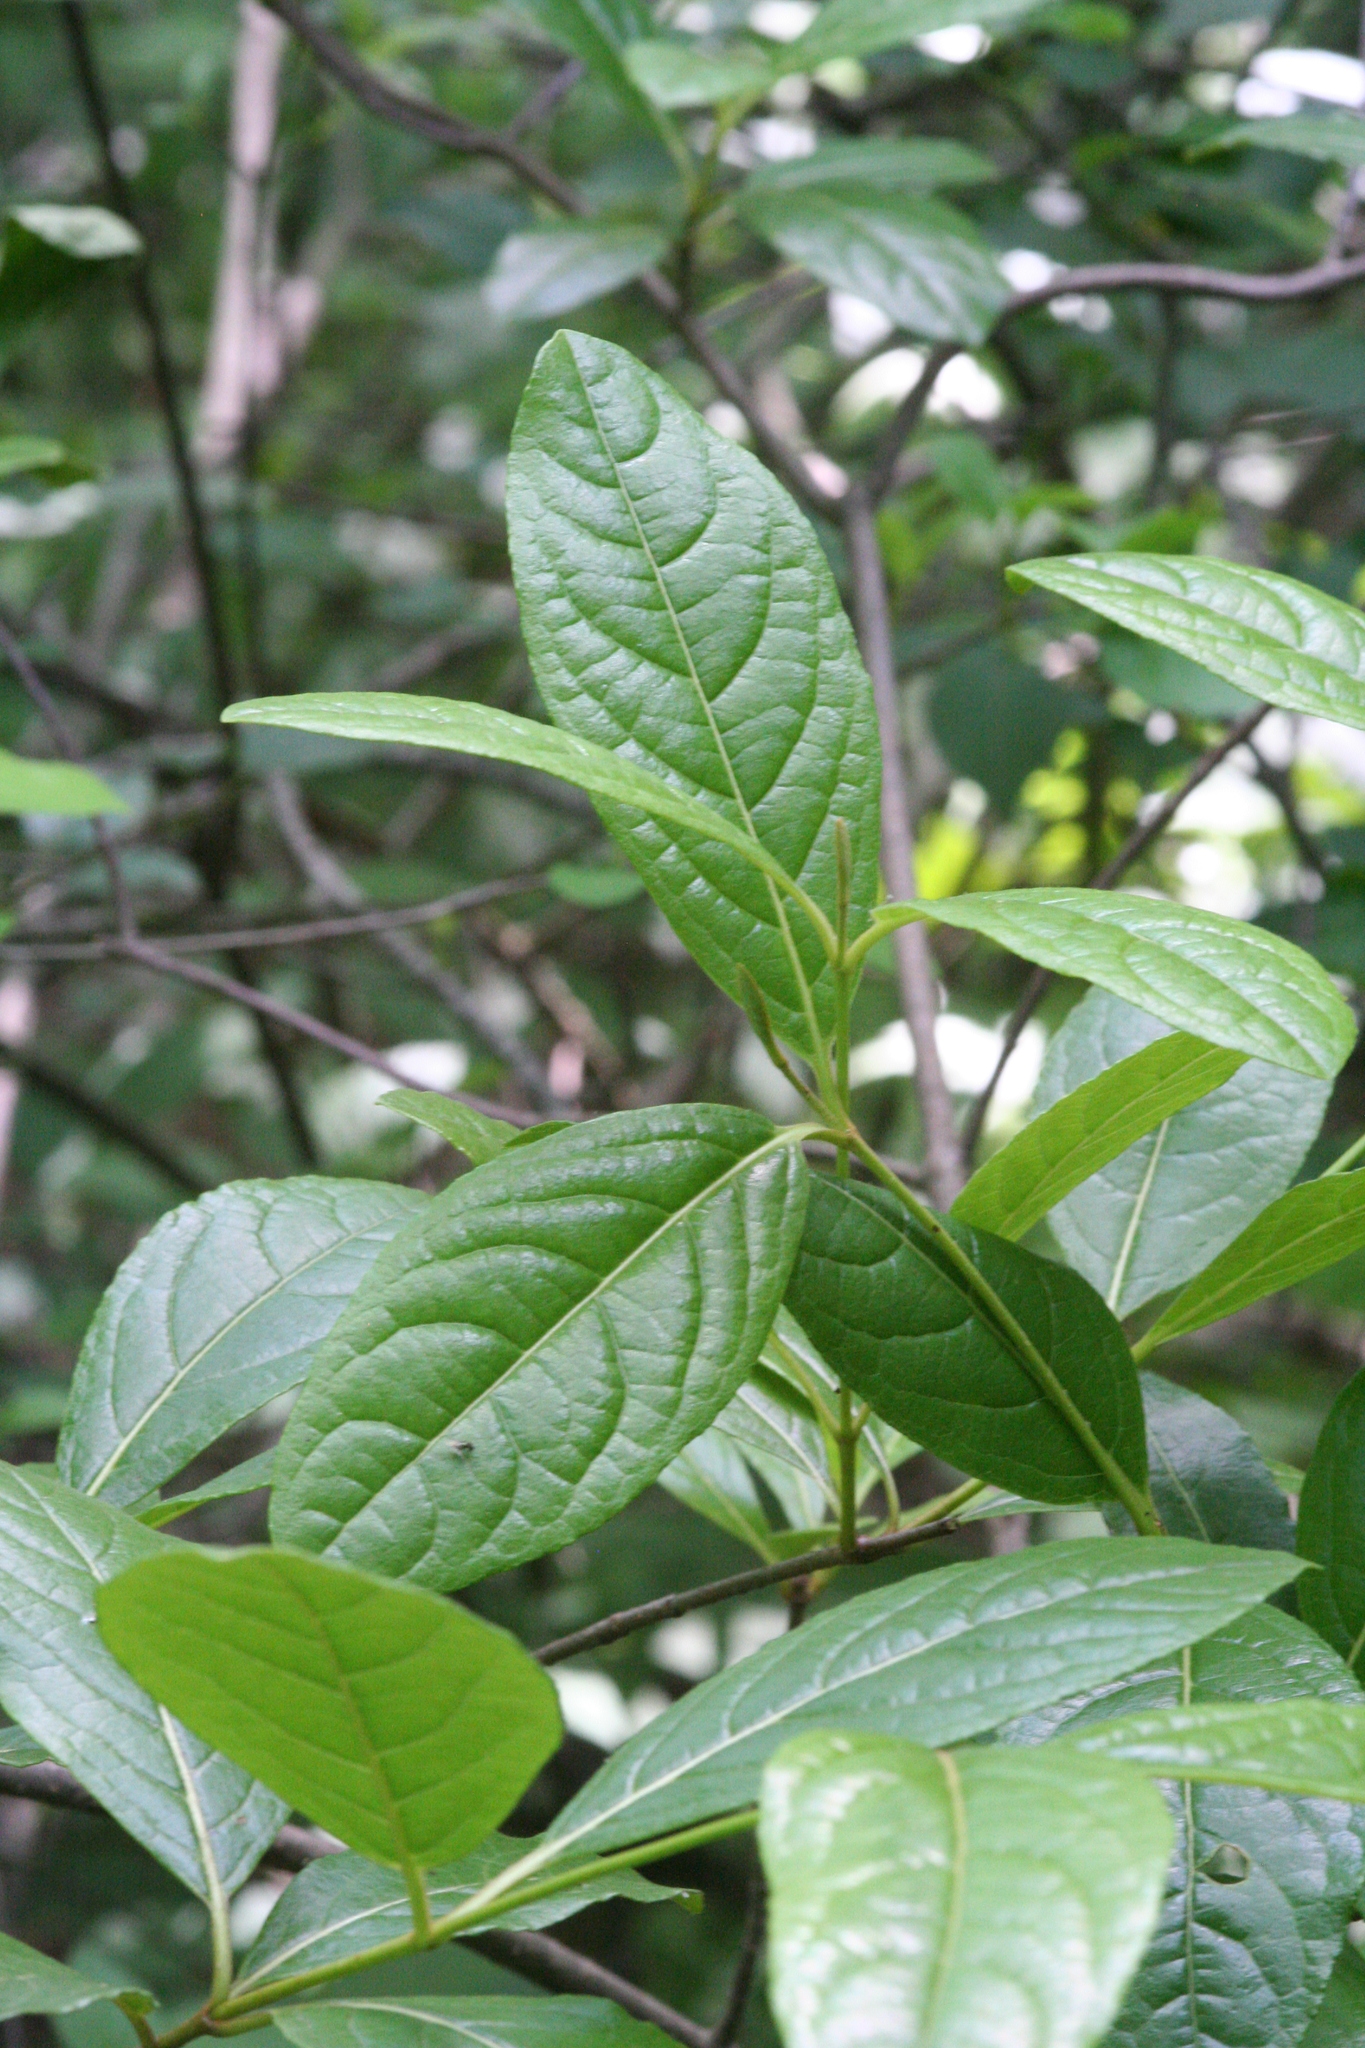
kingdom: Plantae
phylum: Tracheophyta
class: Magnoliopsida
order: Dipsacales
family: Viburnaceae
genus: Viburnum
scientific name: Viburnum nudum
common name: Possum haw
